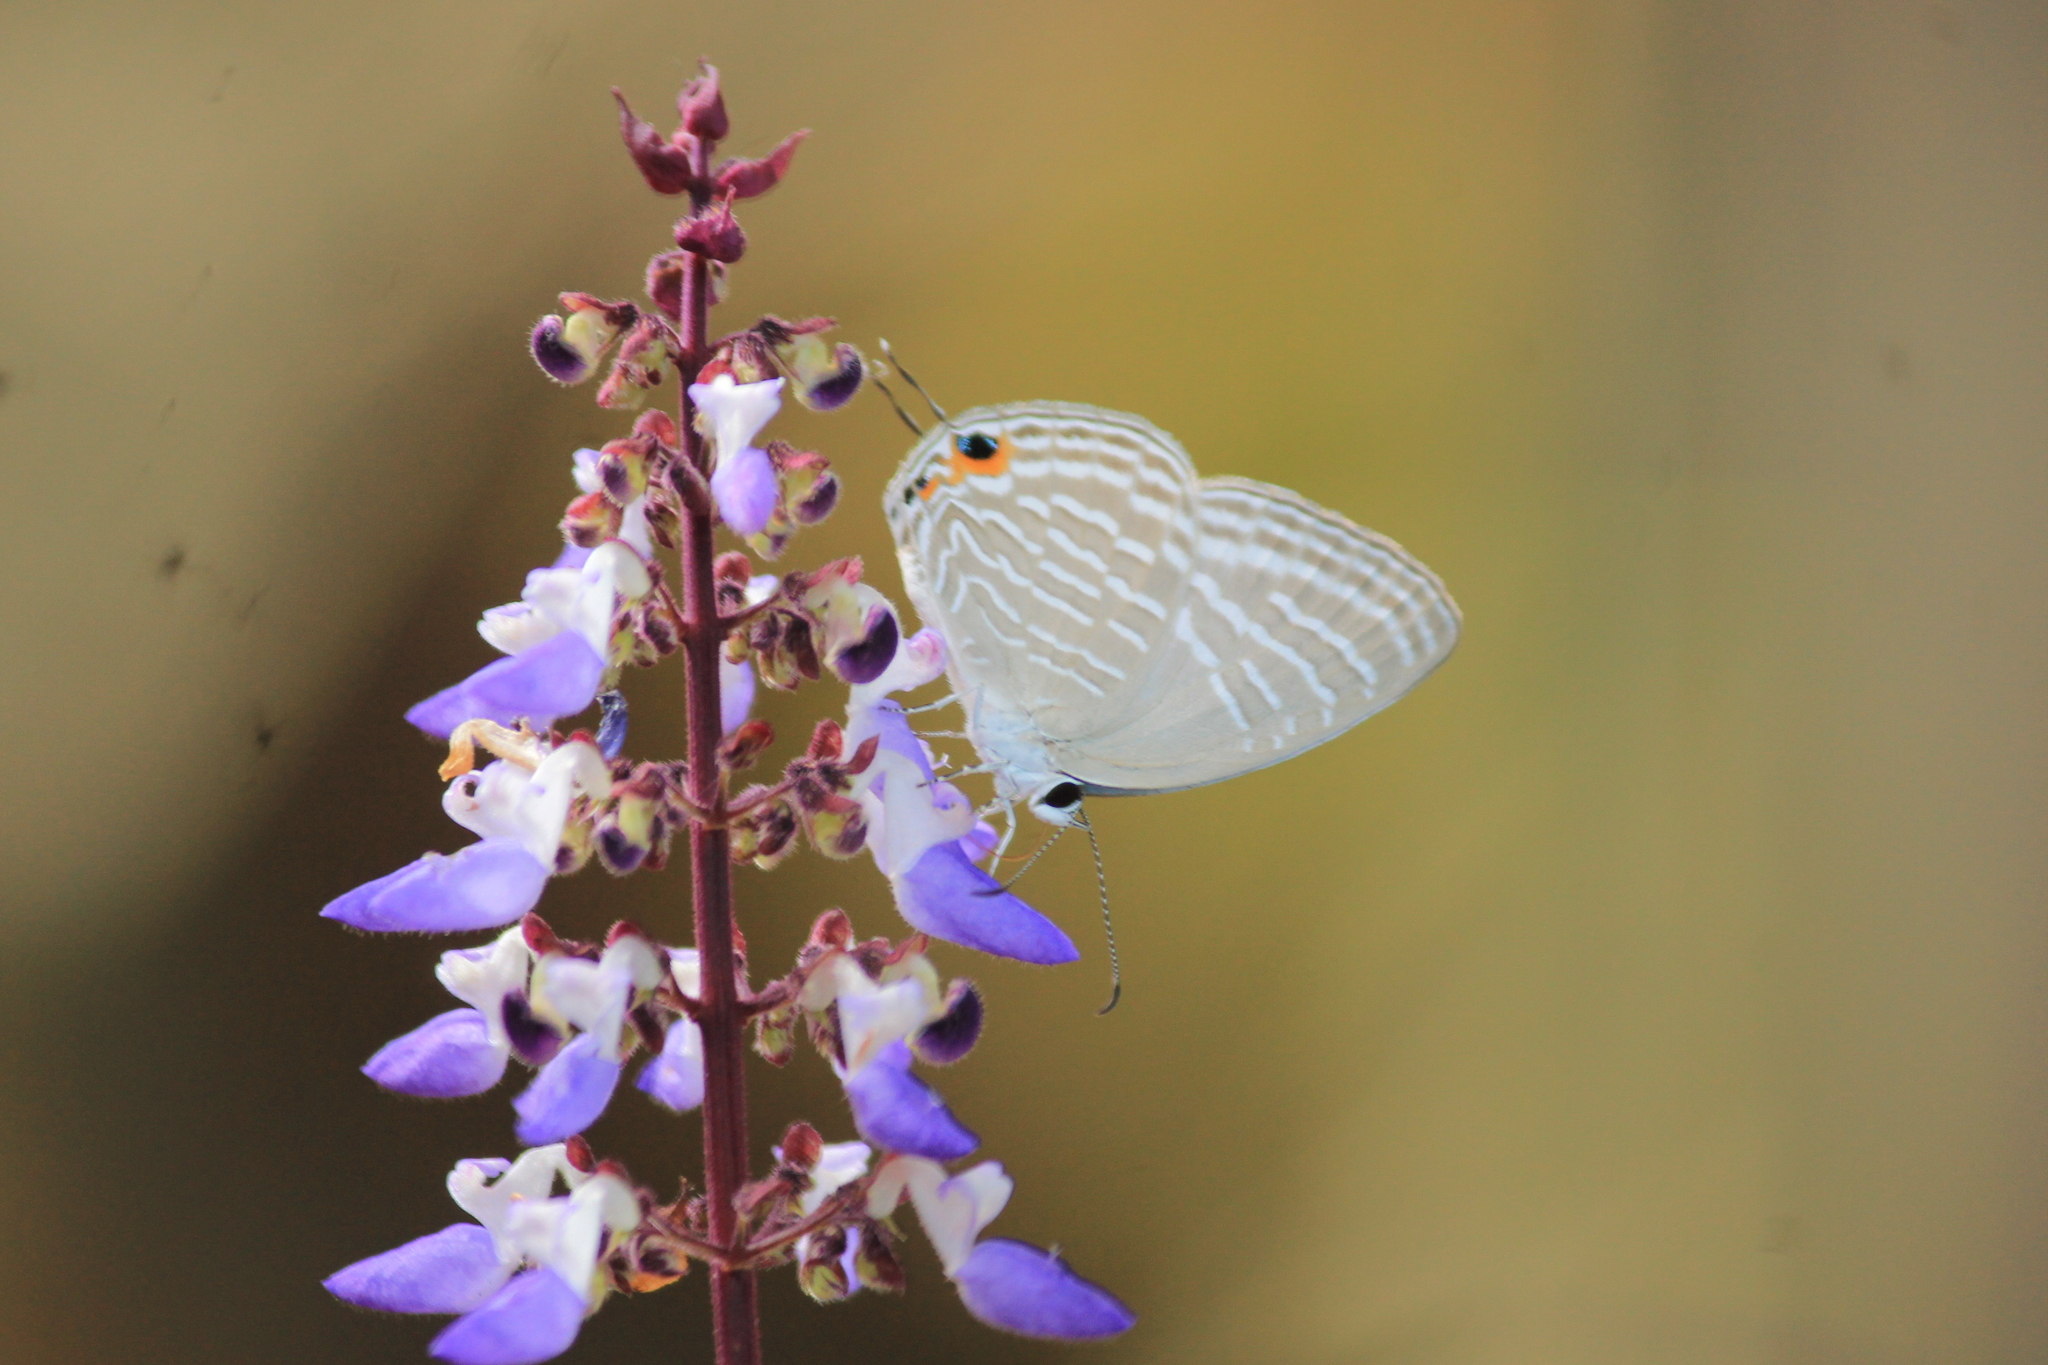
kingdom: Animalia
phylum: Arthropoda
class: Insecta
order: Lepidoptera
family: Lycaenidae
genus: Jamides
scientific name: Jamides celeno
